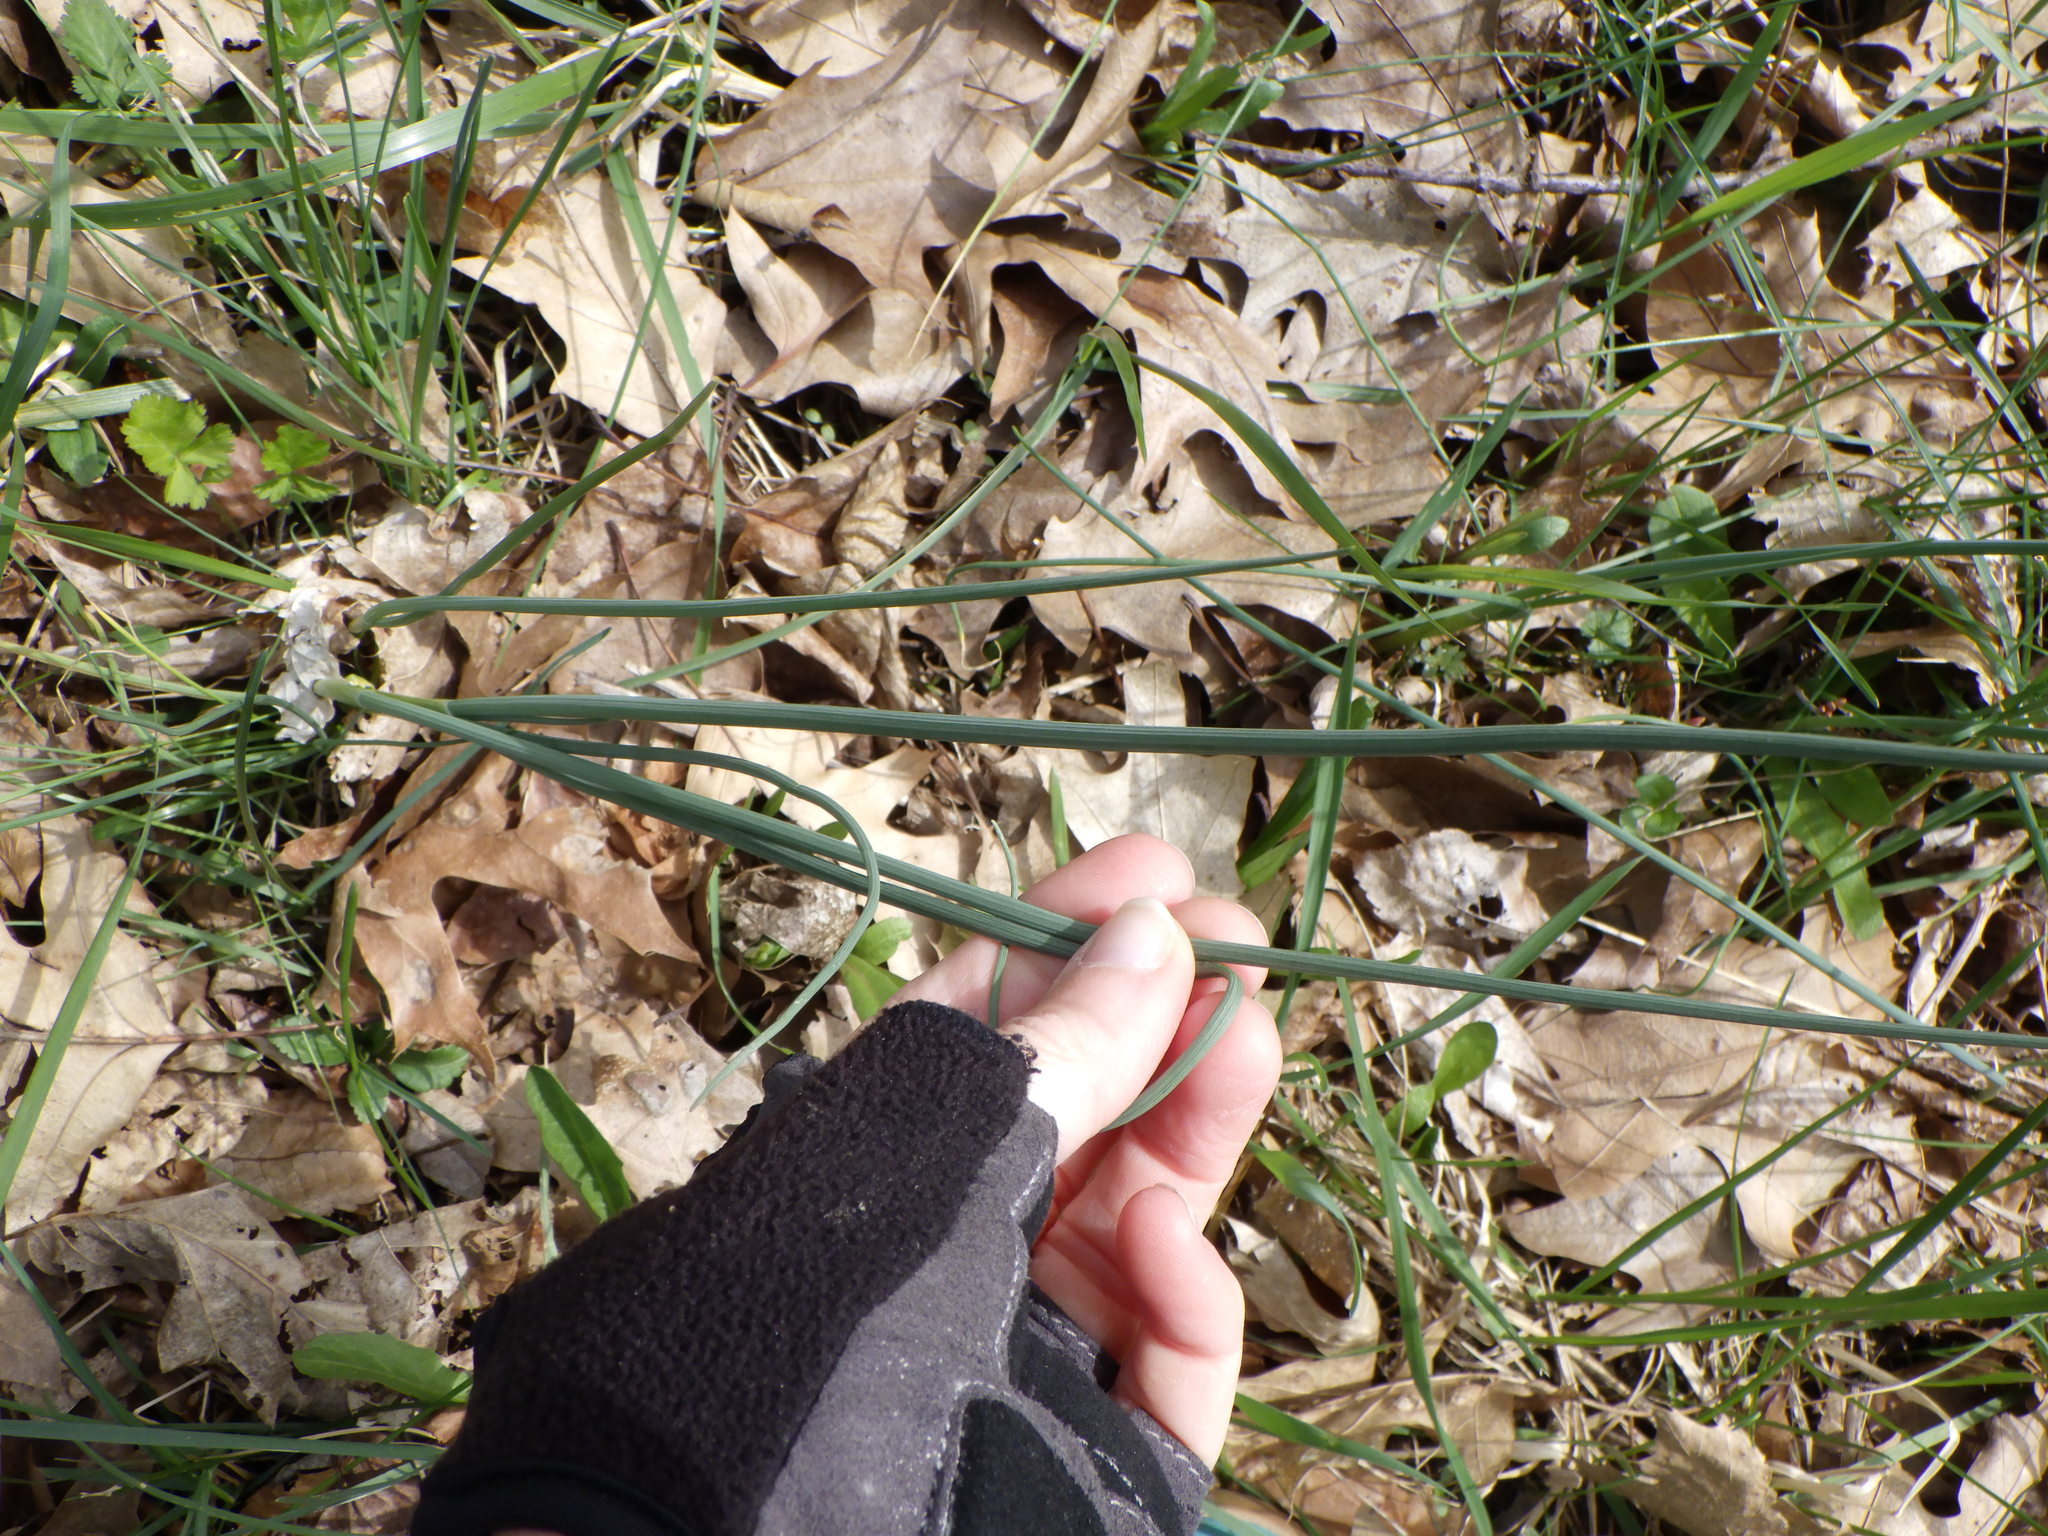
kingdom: Plantae
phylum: Tracheophyta
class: Liliopsida
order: Asparagales
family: Amaryllidaceae
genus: Allium
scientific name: Allium vineale
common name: Crow garlic
